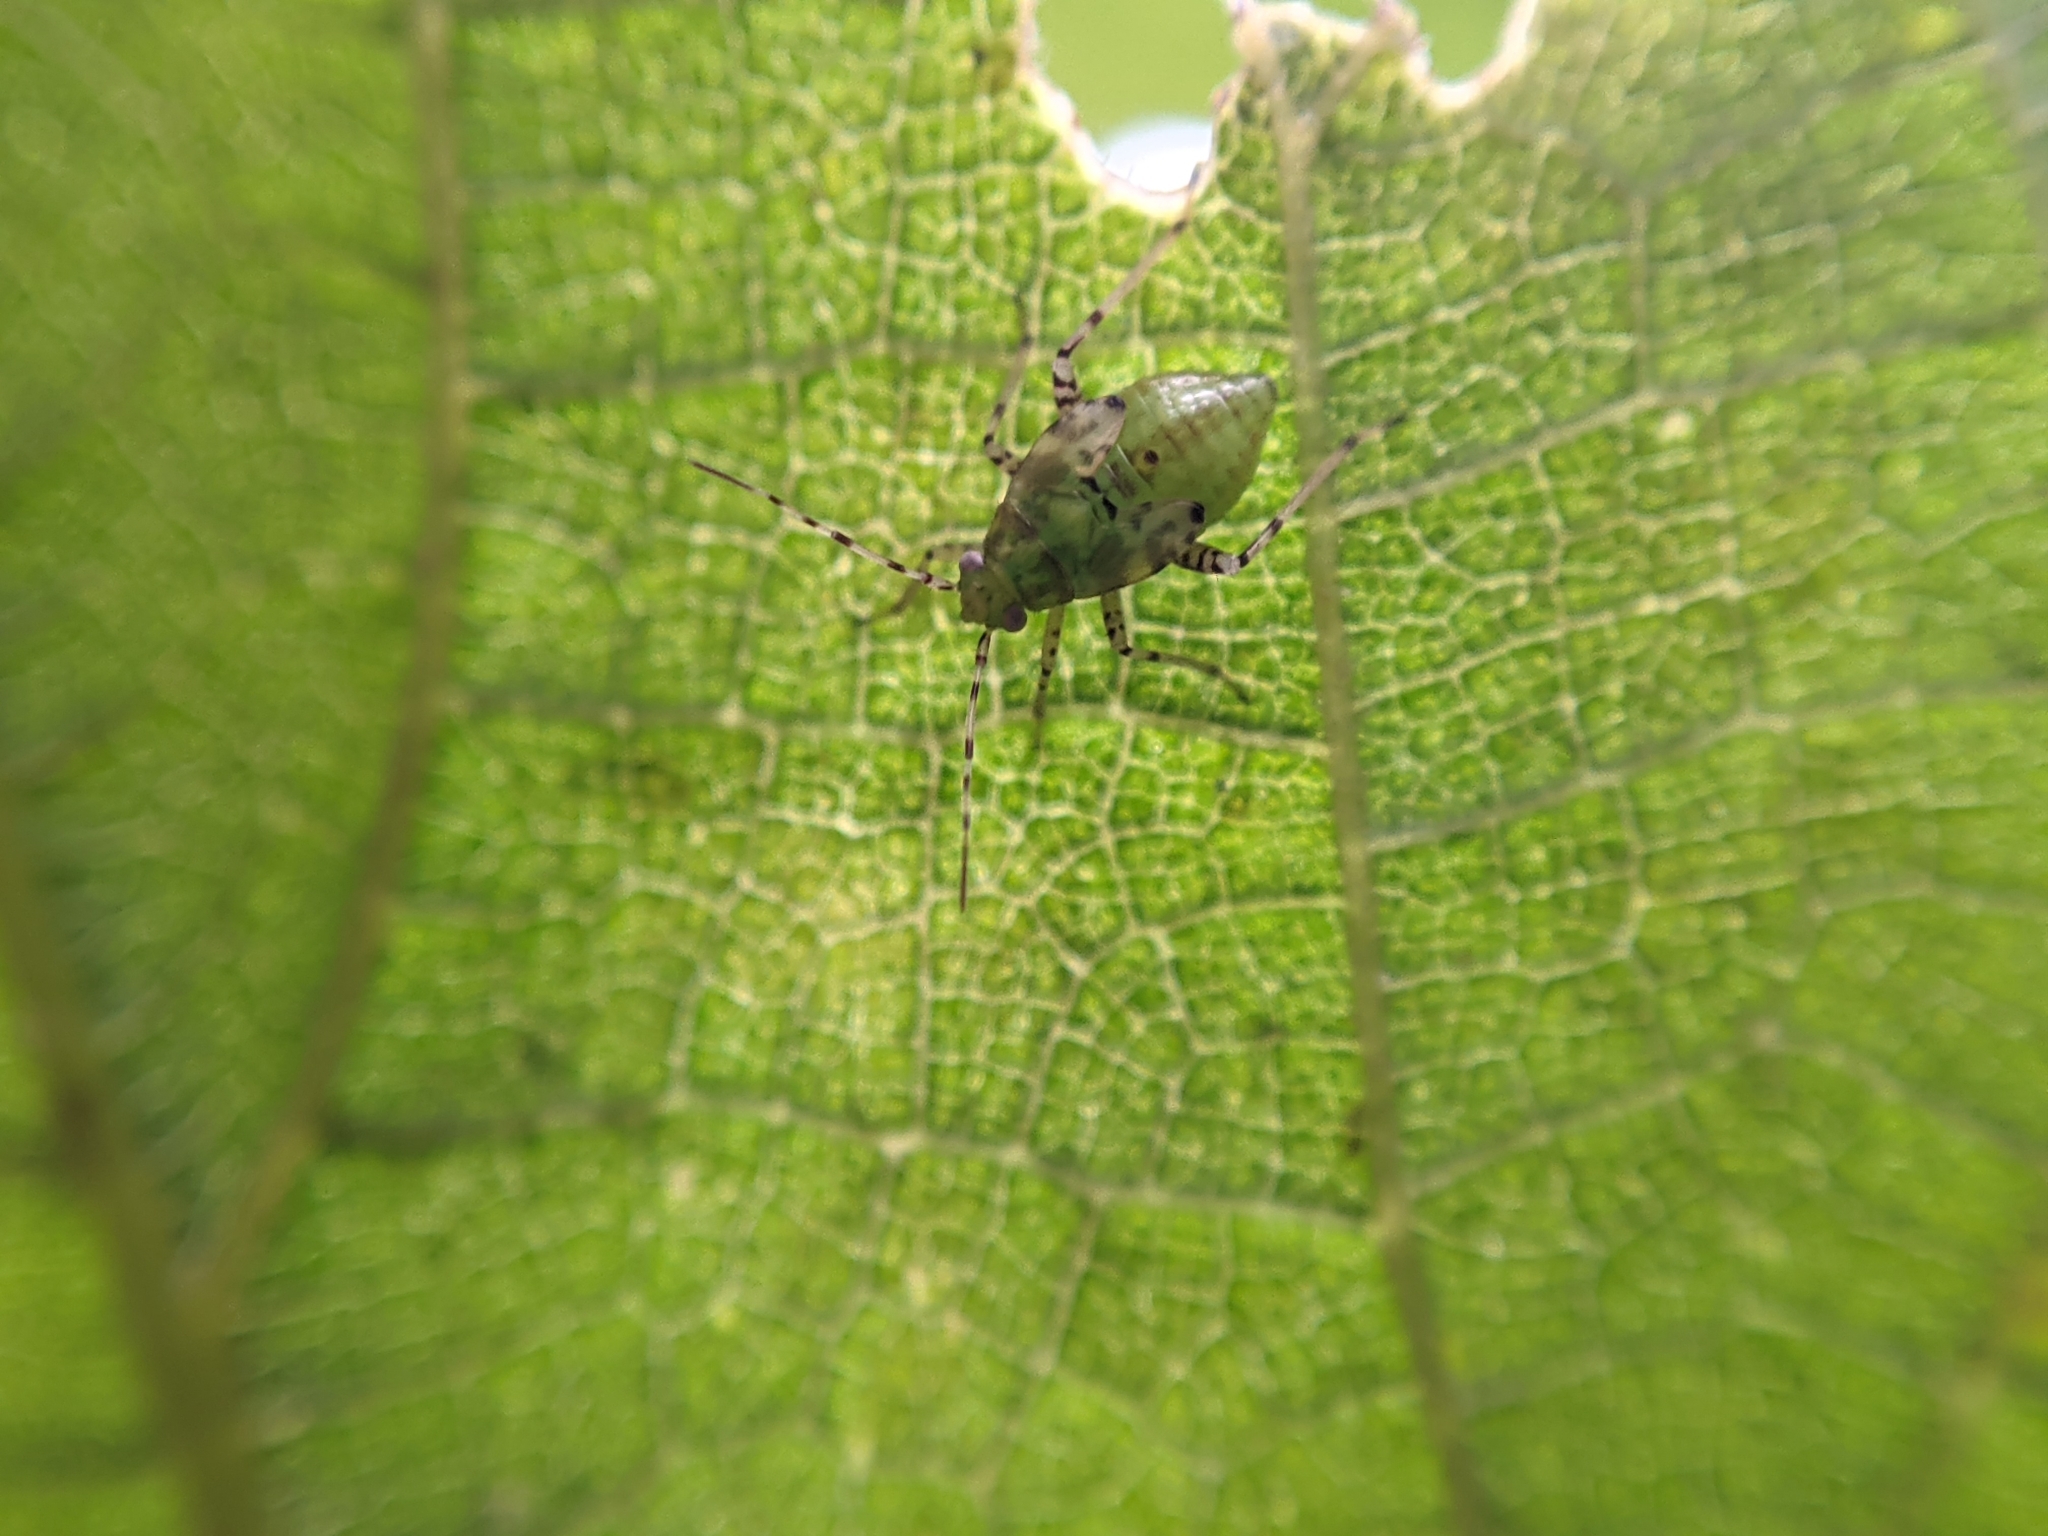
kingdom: Animalia
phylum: Arthropoda
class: Insecta
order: Hemiptera
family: Miridae
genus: Liocoris
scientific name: Liocoris tripustulatus
